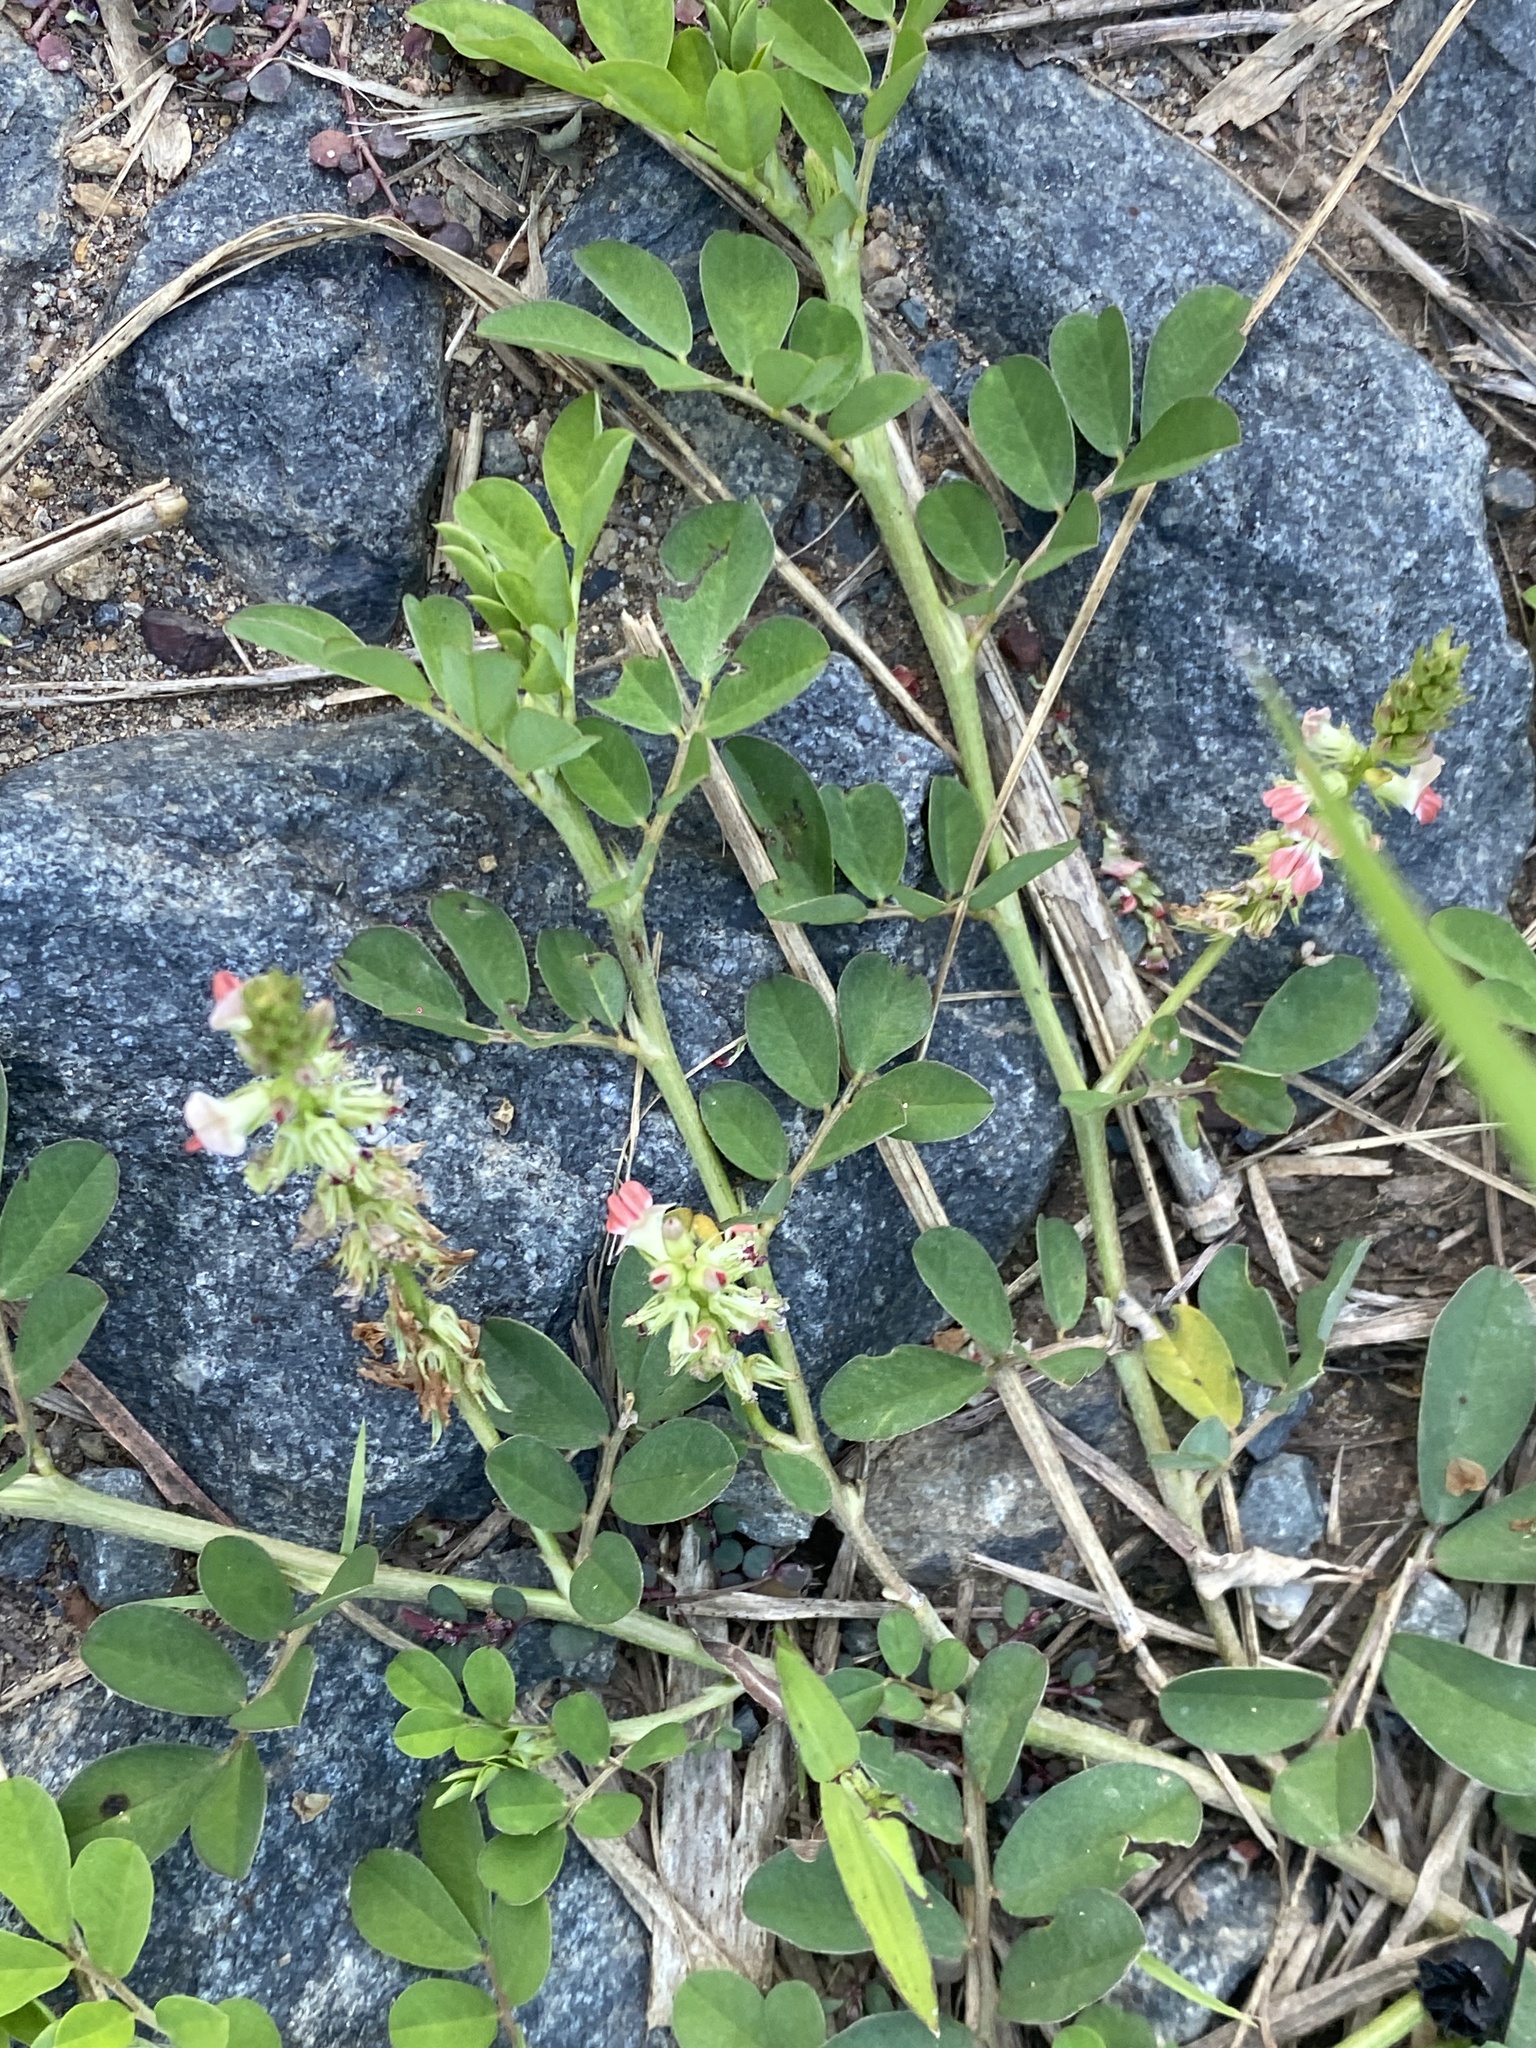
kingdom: Plantae
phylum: Tracheophyta
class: Magnoliopsida
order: Fabales
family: Fabaceae
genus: Indigofera
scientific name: Indigofera spicata
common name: Creeping indigo
